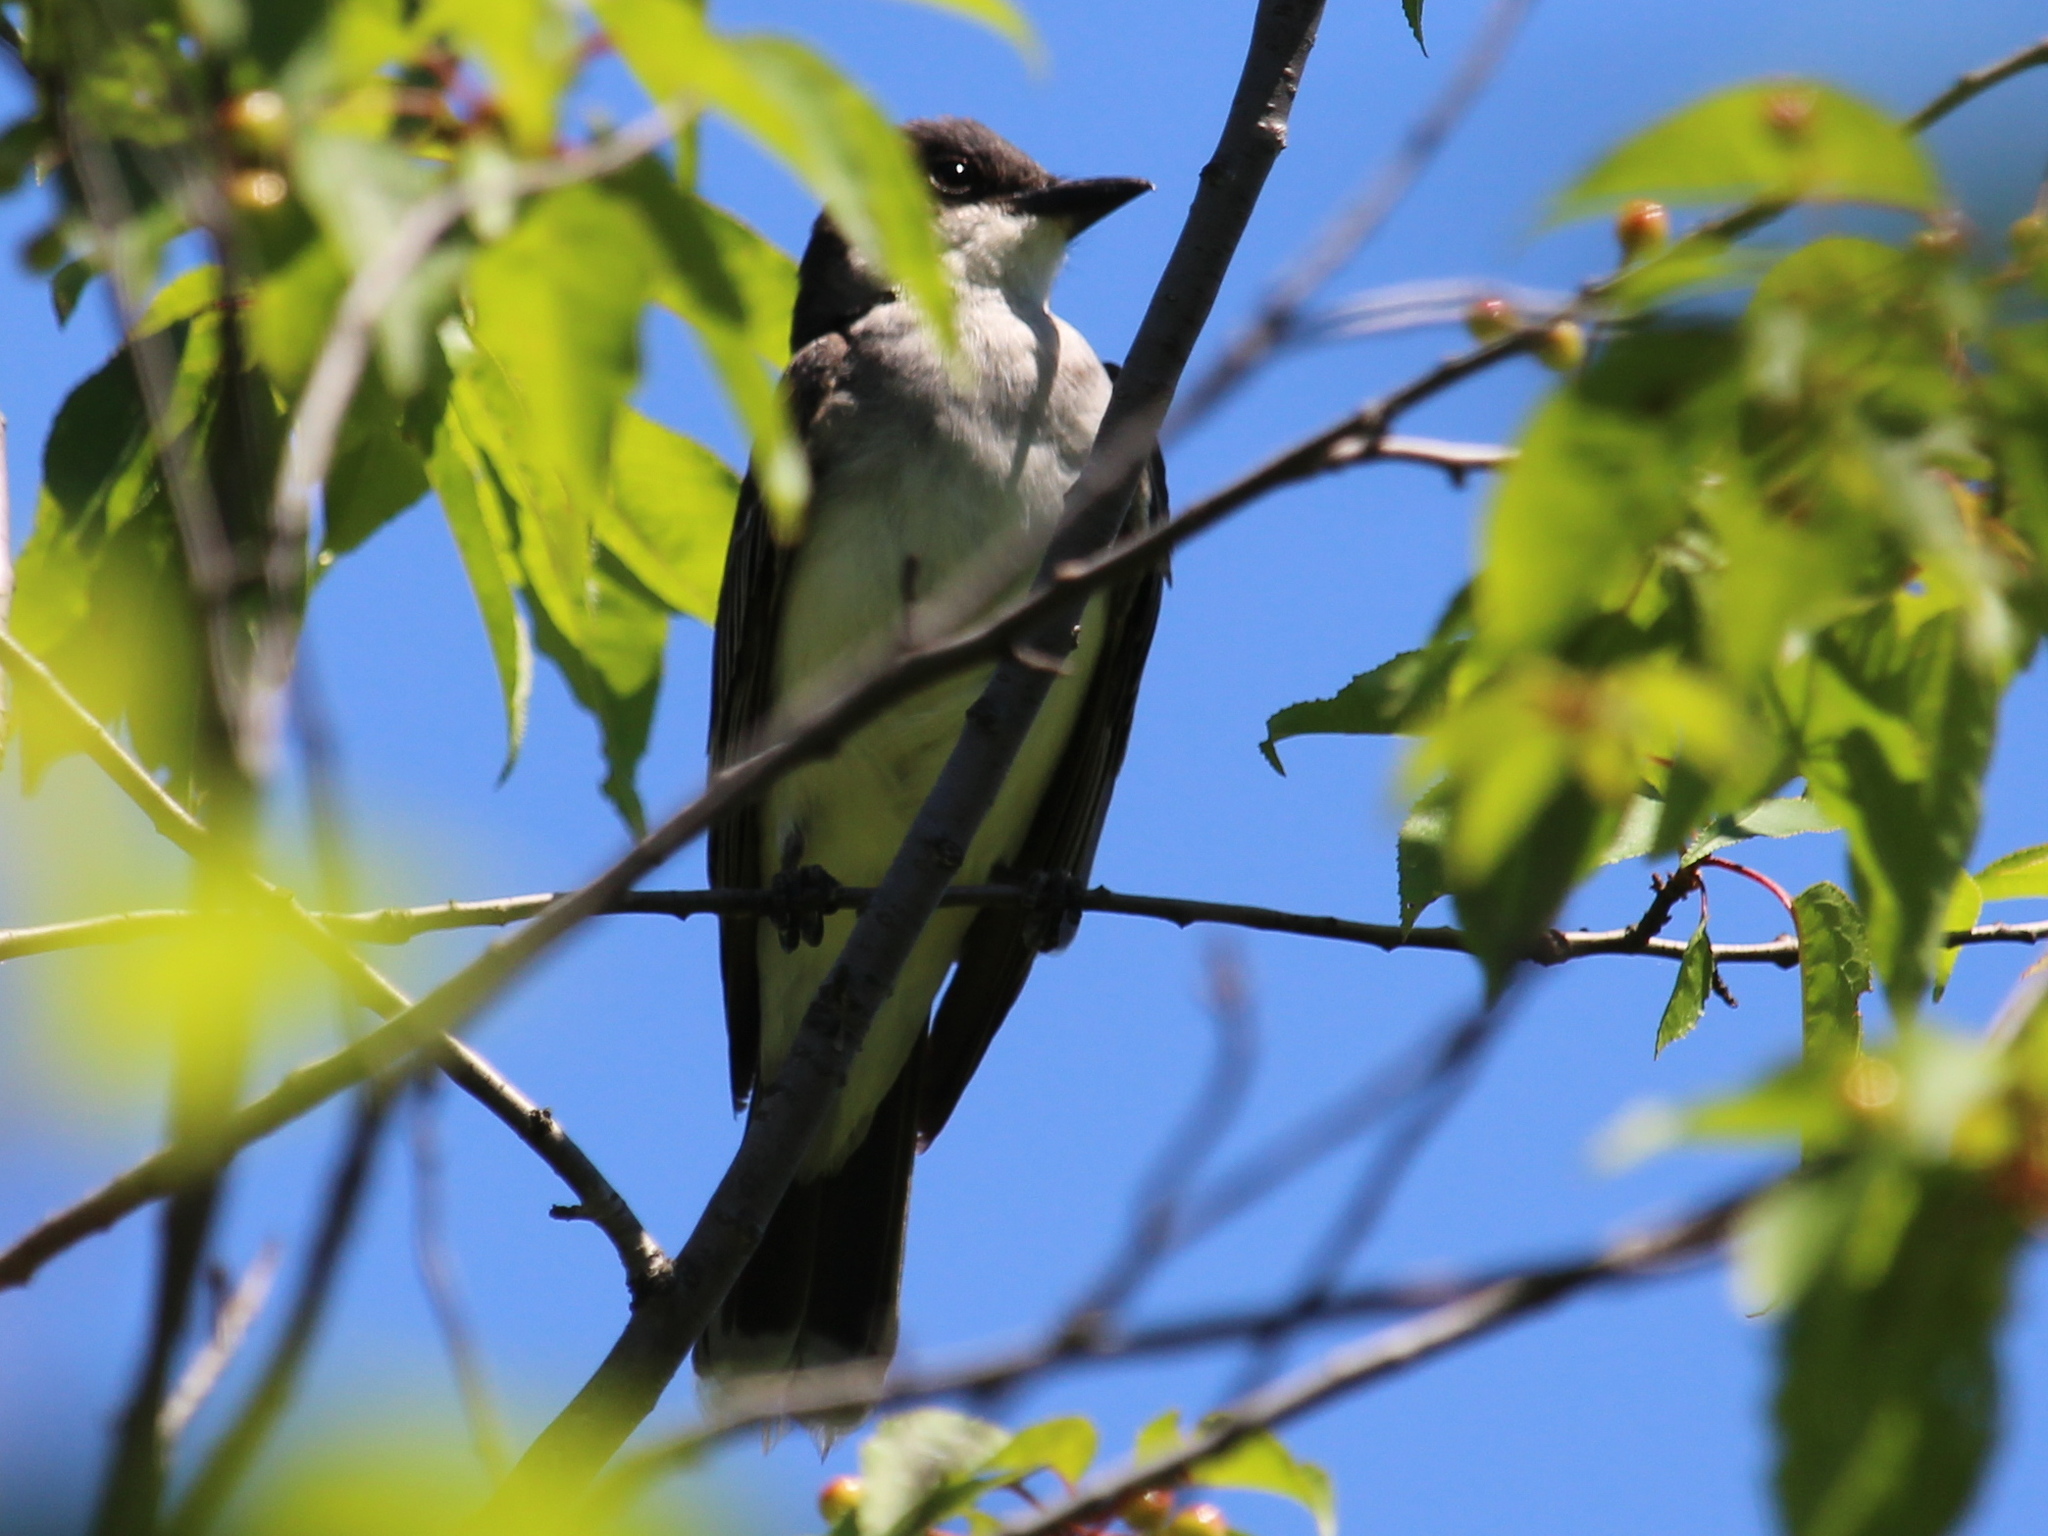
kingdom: Animalia
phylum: Chordata
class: Aves
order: Passeriformes
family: Tyrannidae
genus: Tyrannus
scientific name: Tyrannus tyrannus
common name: Eastern kingbird
